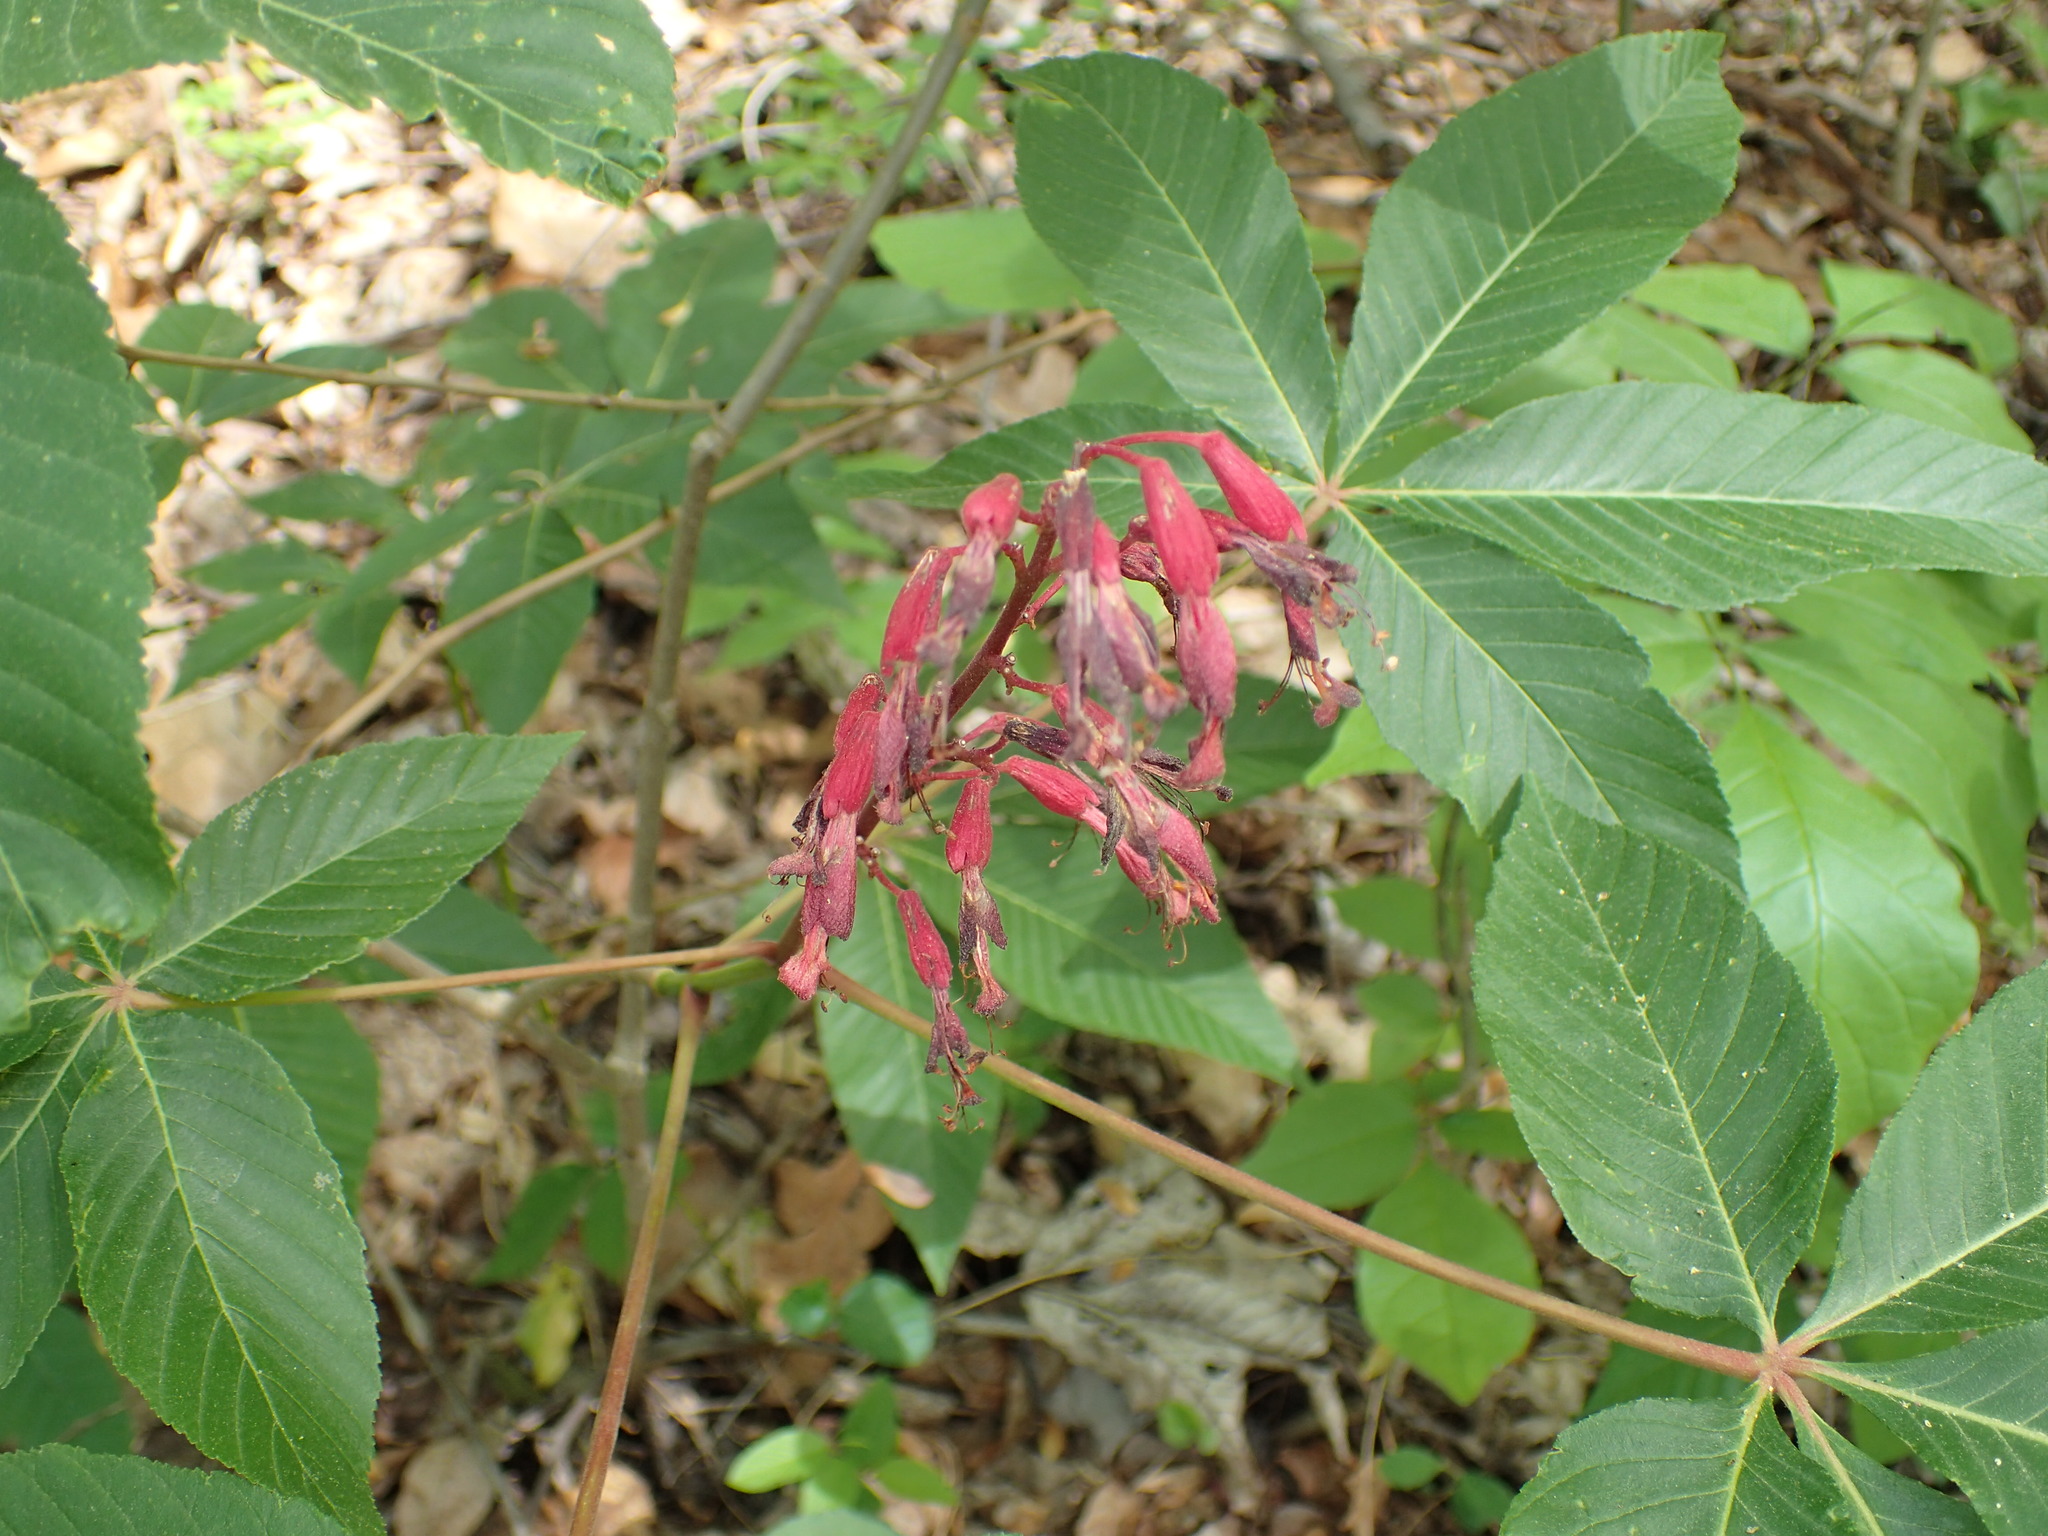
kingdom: Plantae
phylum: Tracheophyta
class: Magnoliopsida
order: Sapindales
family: Sapindaceae
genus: Aesculus
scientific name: Aesculus pavia
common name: Red buckeye
